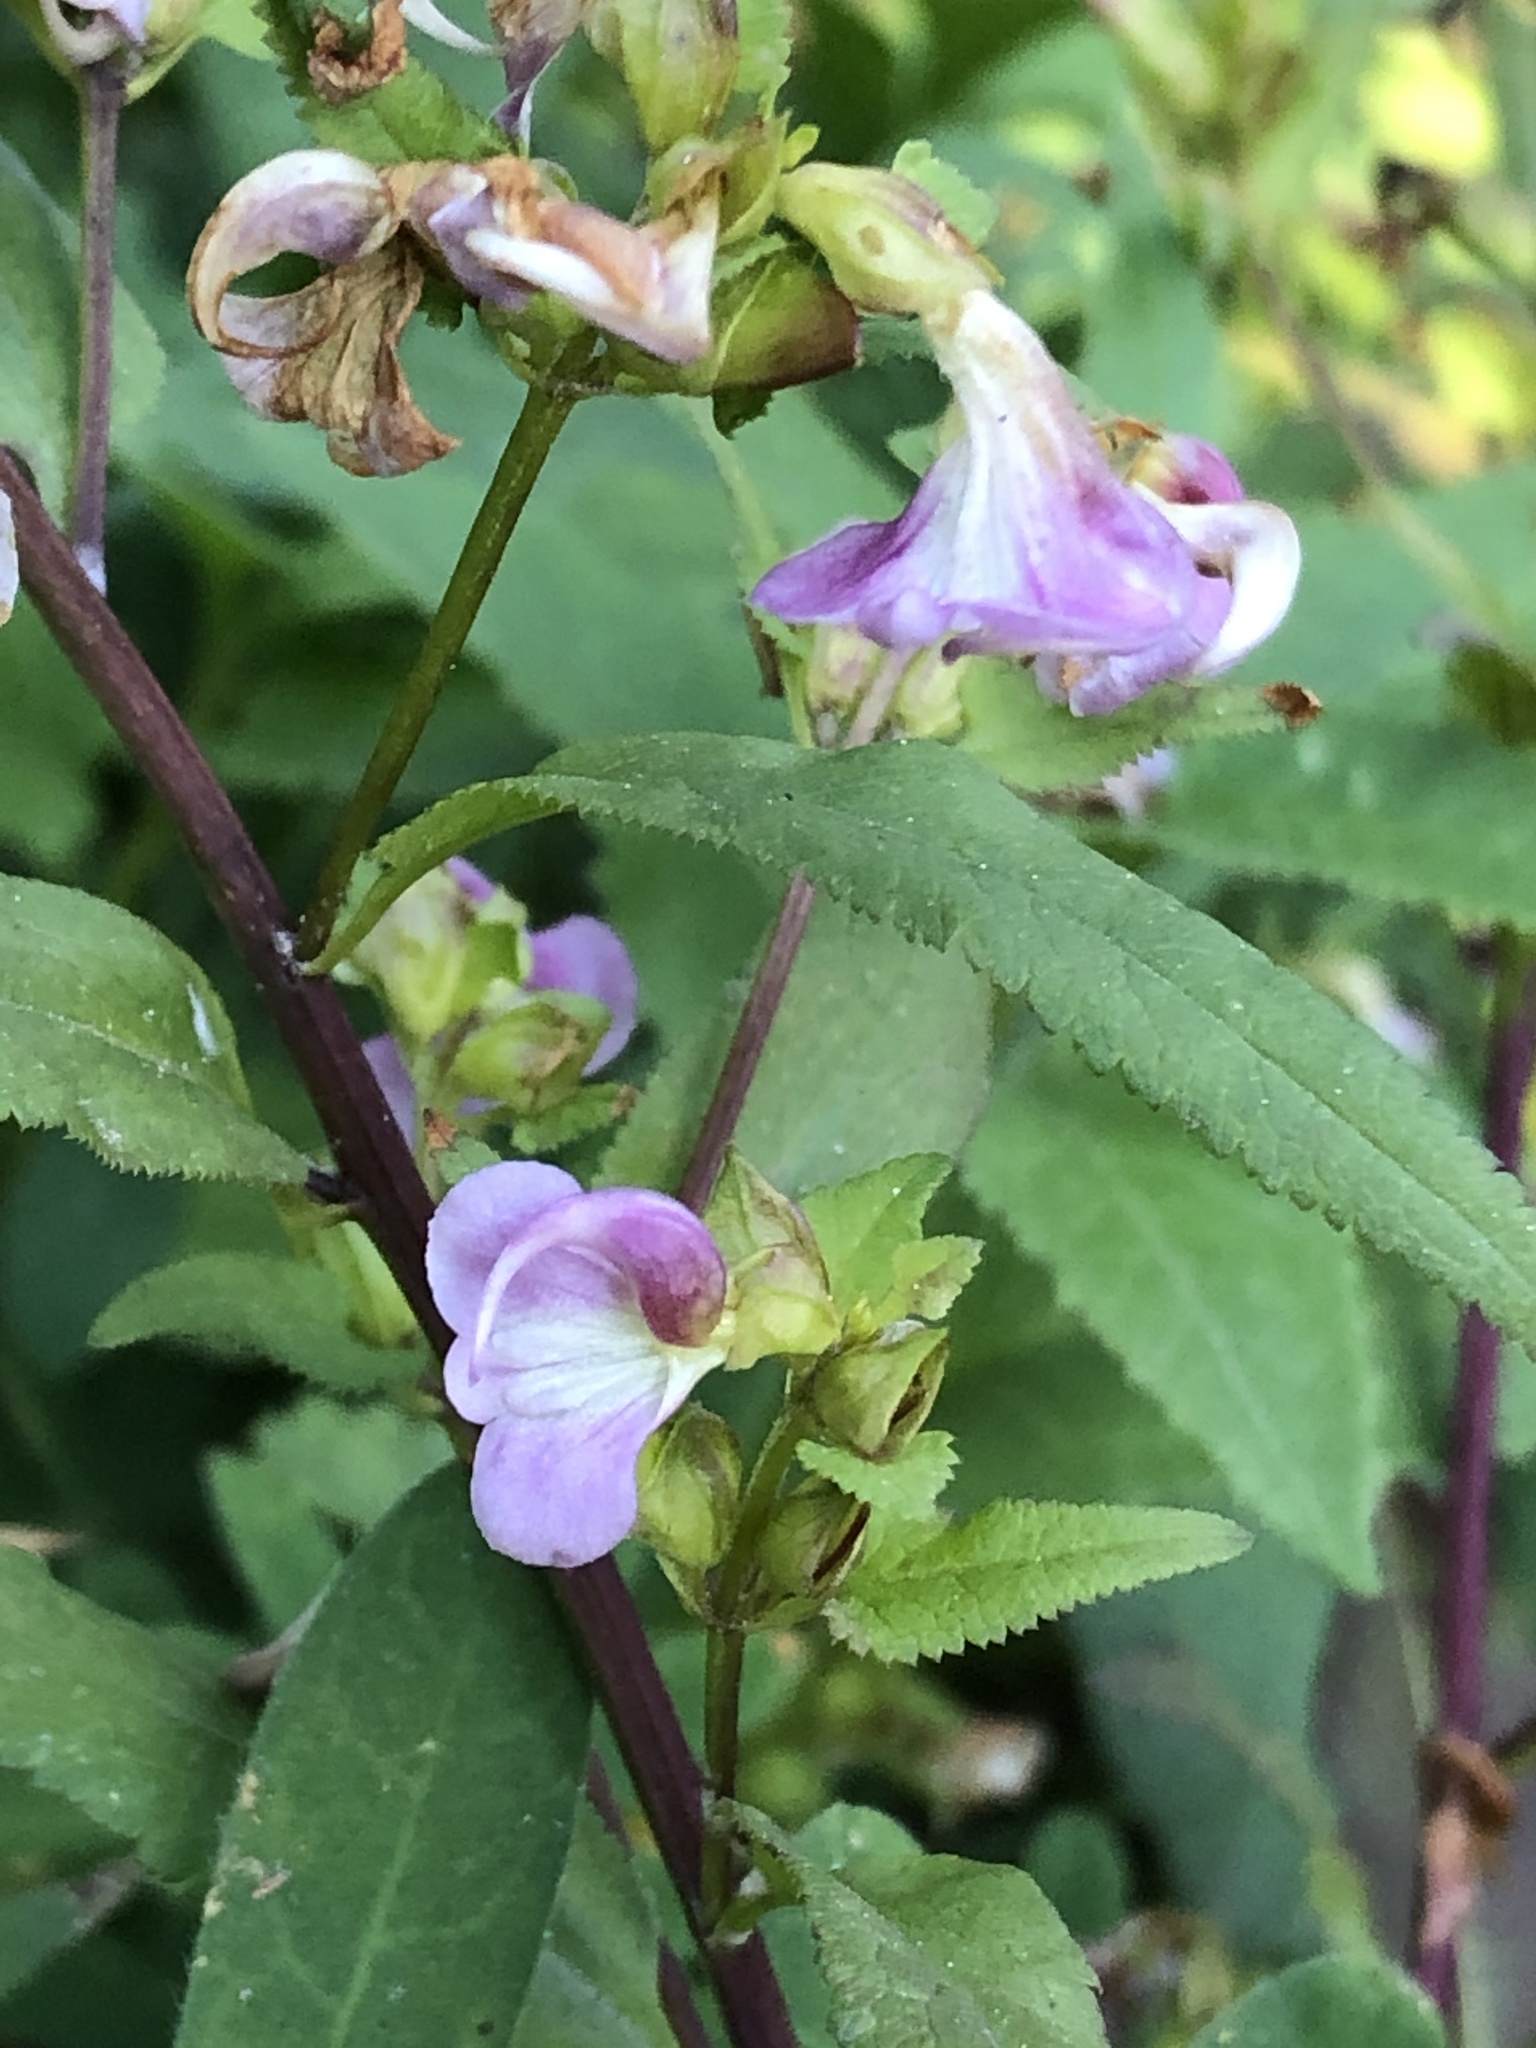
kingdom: Plantae
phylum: Tracheophyta
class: Magnoliopsida
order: Lamiales
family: Orobanchaceae
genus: Pedicularis
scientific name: Pedicularis racemosa
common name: Leafy lousewort
